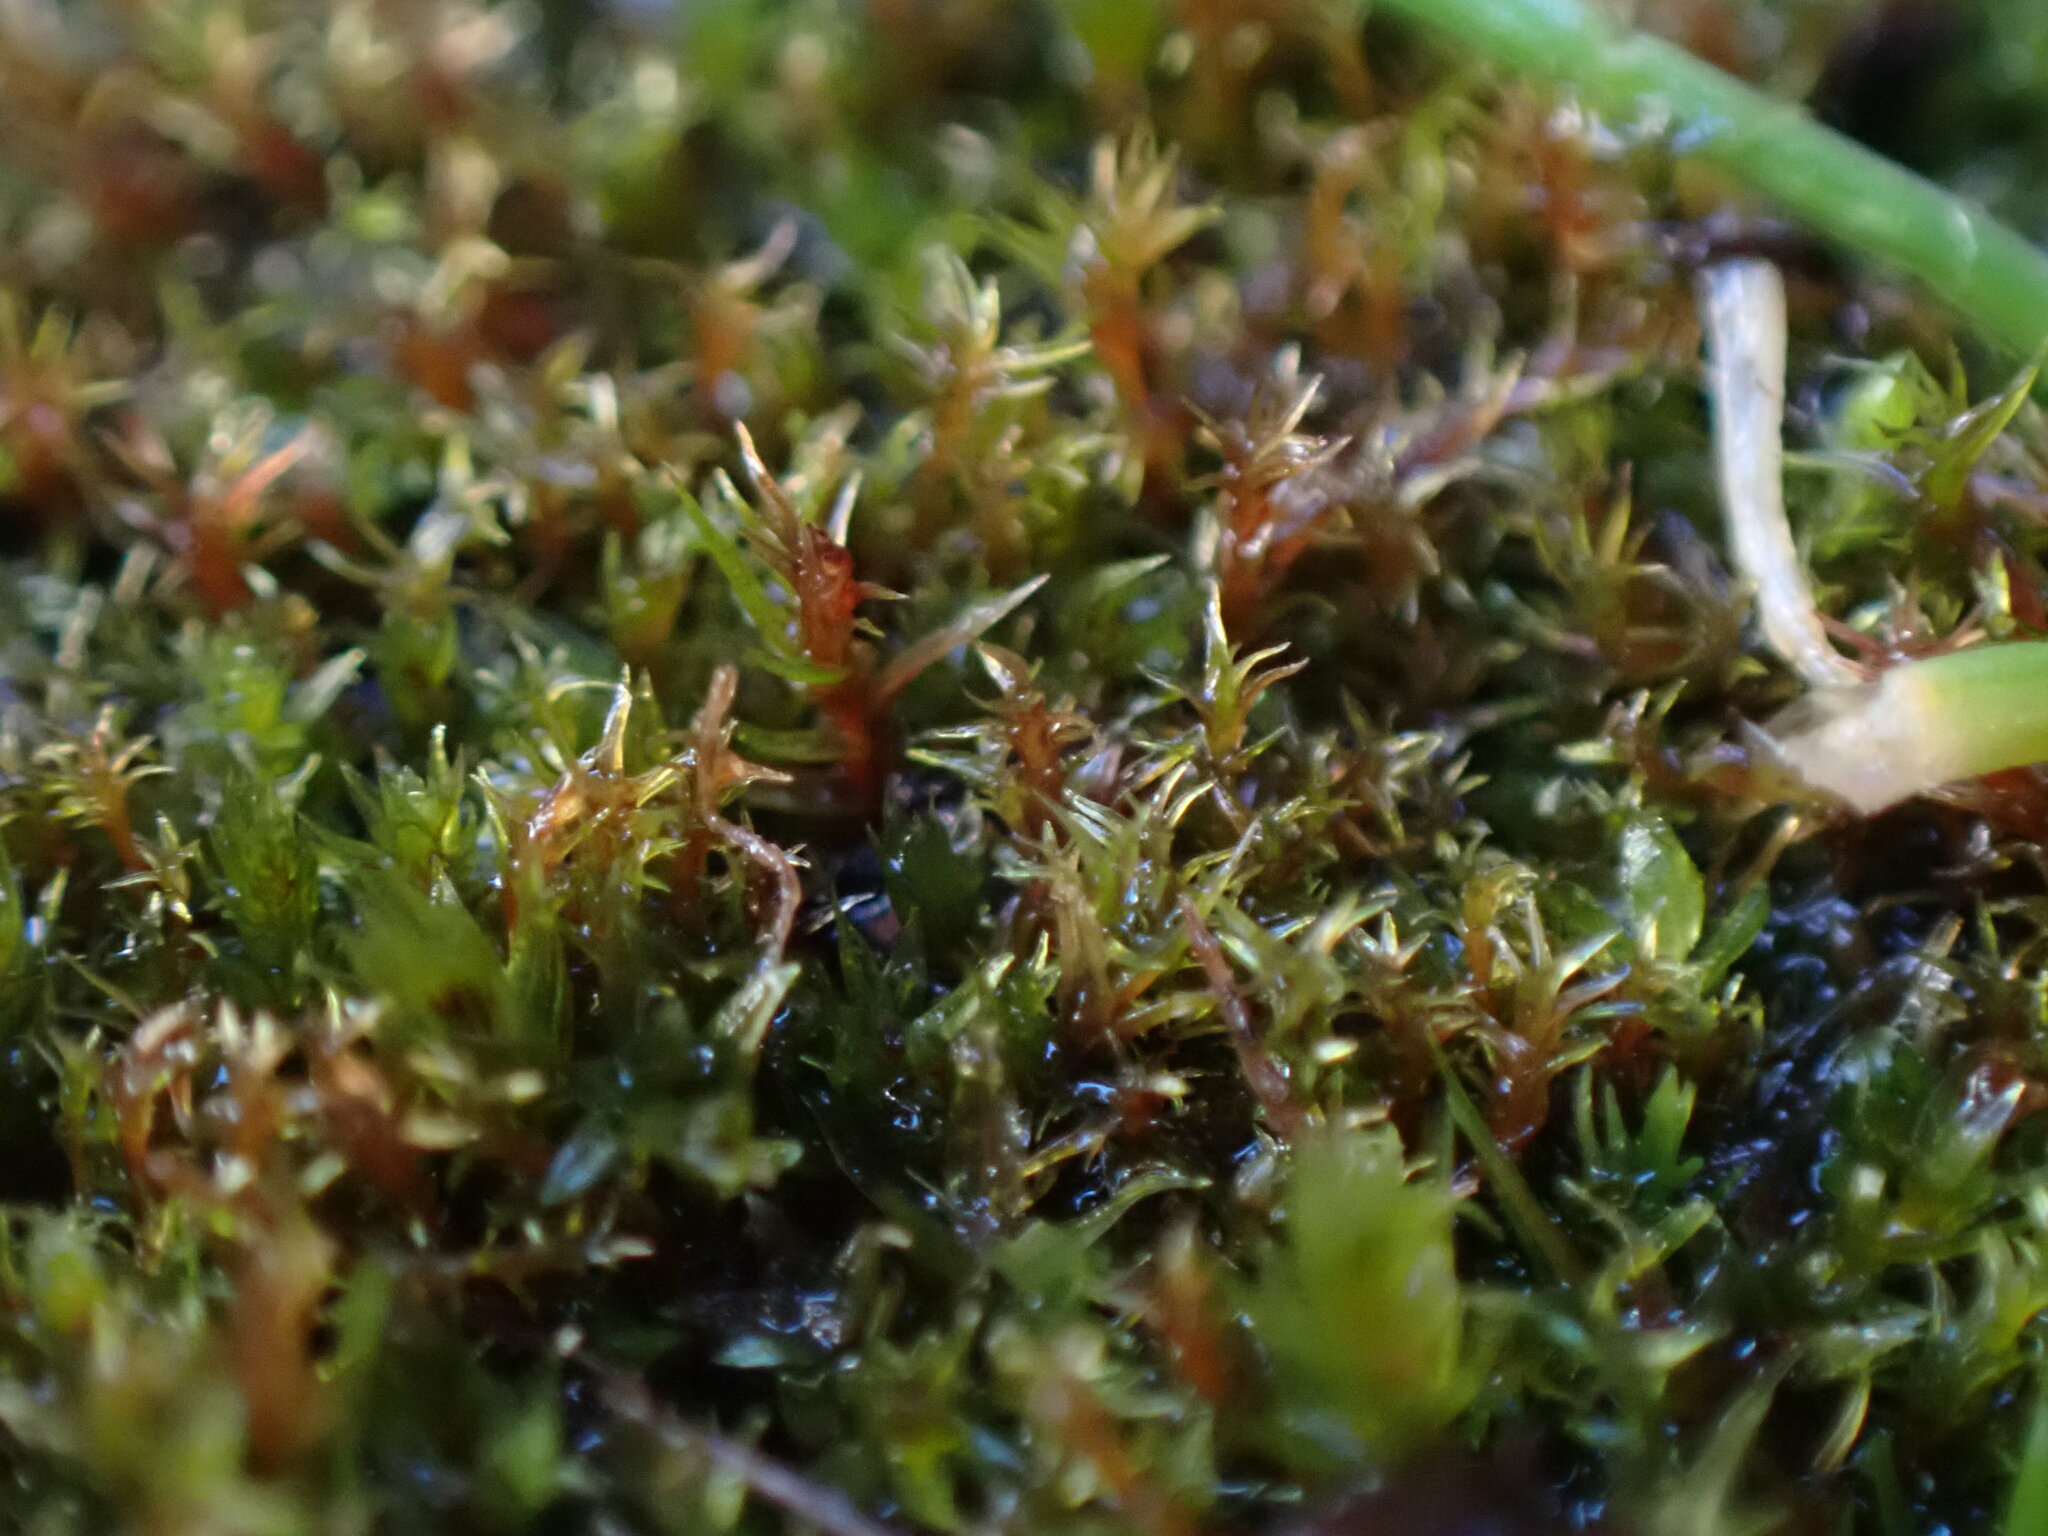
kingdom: Plantae
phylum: Bryophyta
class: Bryopsida
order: Dicranales
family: Ditrichaceae
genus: Ceratodon
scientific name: Ceratodon purpureus
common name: Redshank
